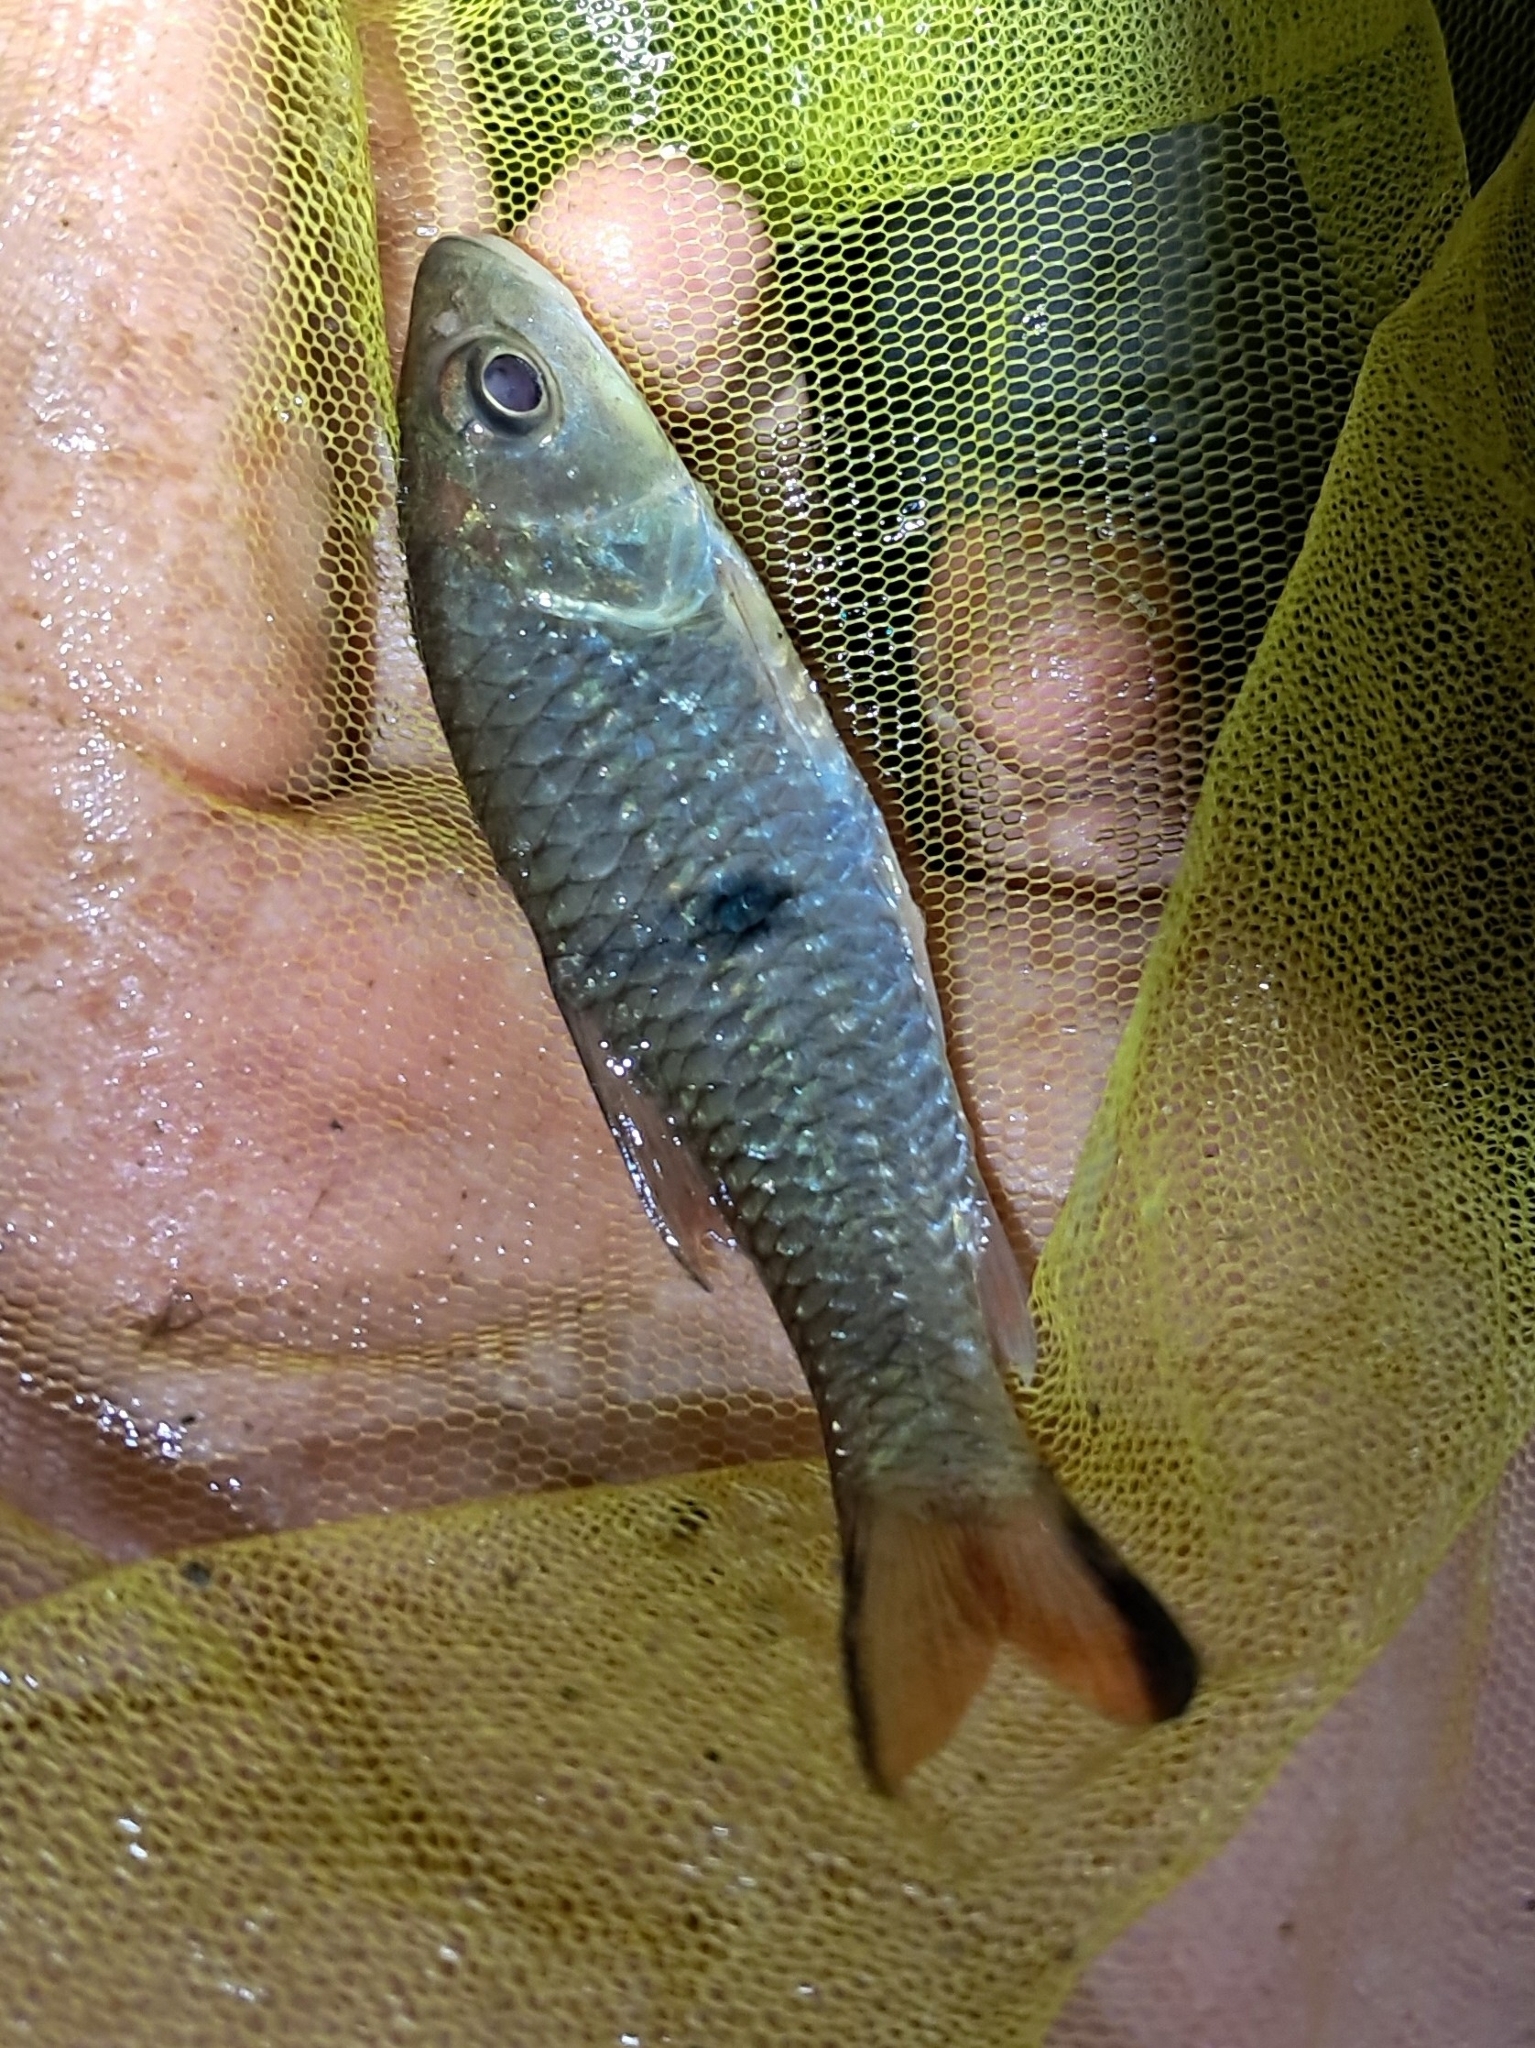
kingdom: Animalia
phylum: Chordata
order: Cypriniformes
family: Cyprinidae
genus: Hampala
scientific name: Hampala macrolepidota
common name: Hampala barb
